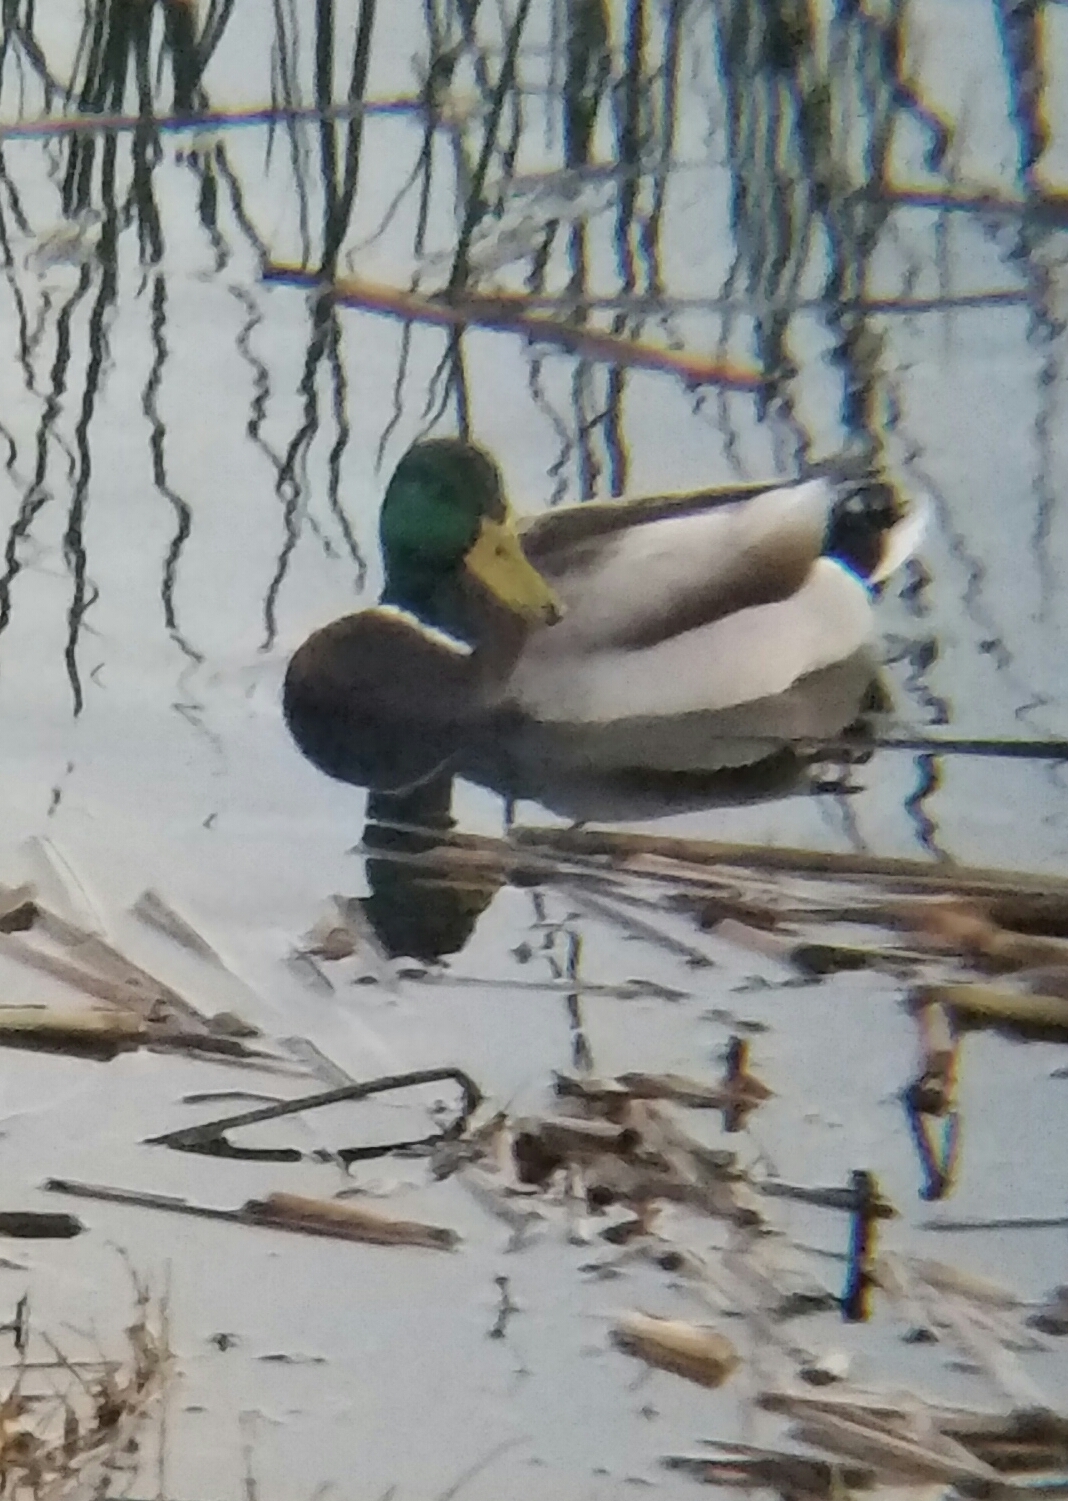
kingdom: Animalia
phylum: Chordata
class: Aves
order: Anseriformes
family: Anatidae
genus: Anas
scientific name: Anas platyrhynchos
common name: Mallard
